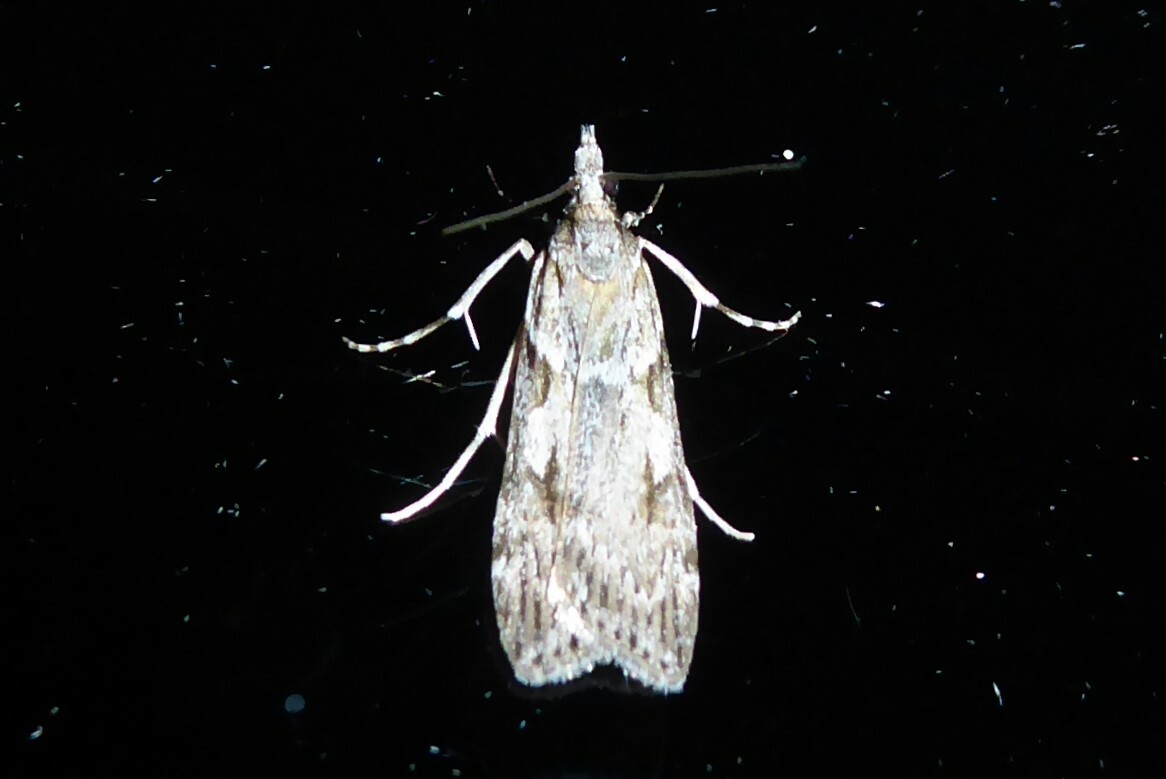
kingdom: Animalia
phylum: Arthropoda
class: Insecta
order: Lepidoptera
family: Crambidae
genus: Scoparia
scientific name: Scoparia halopis
